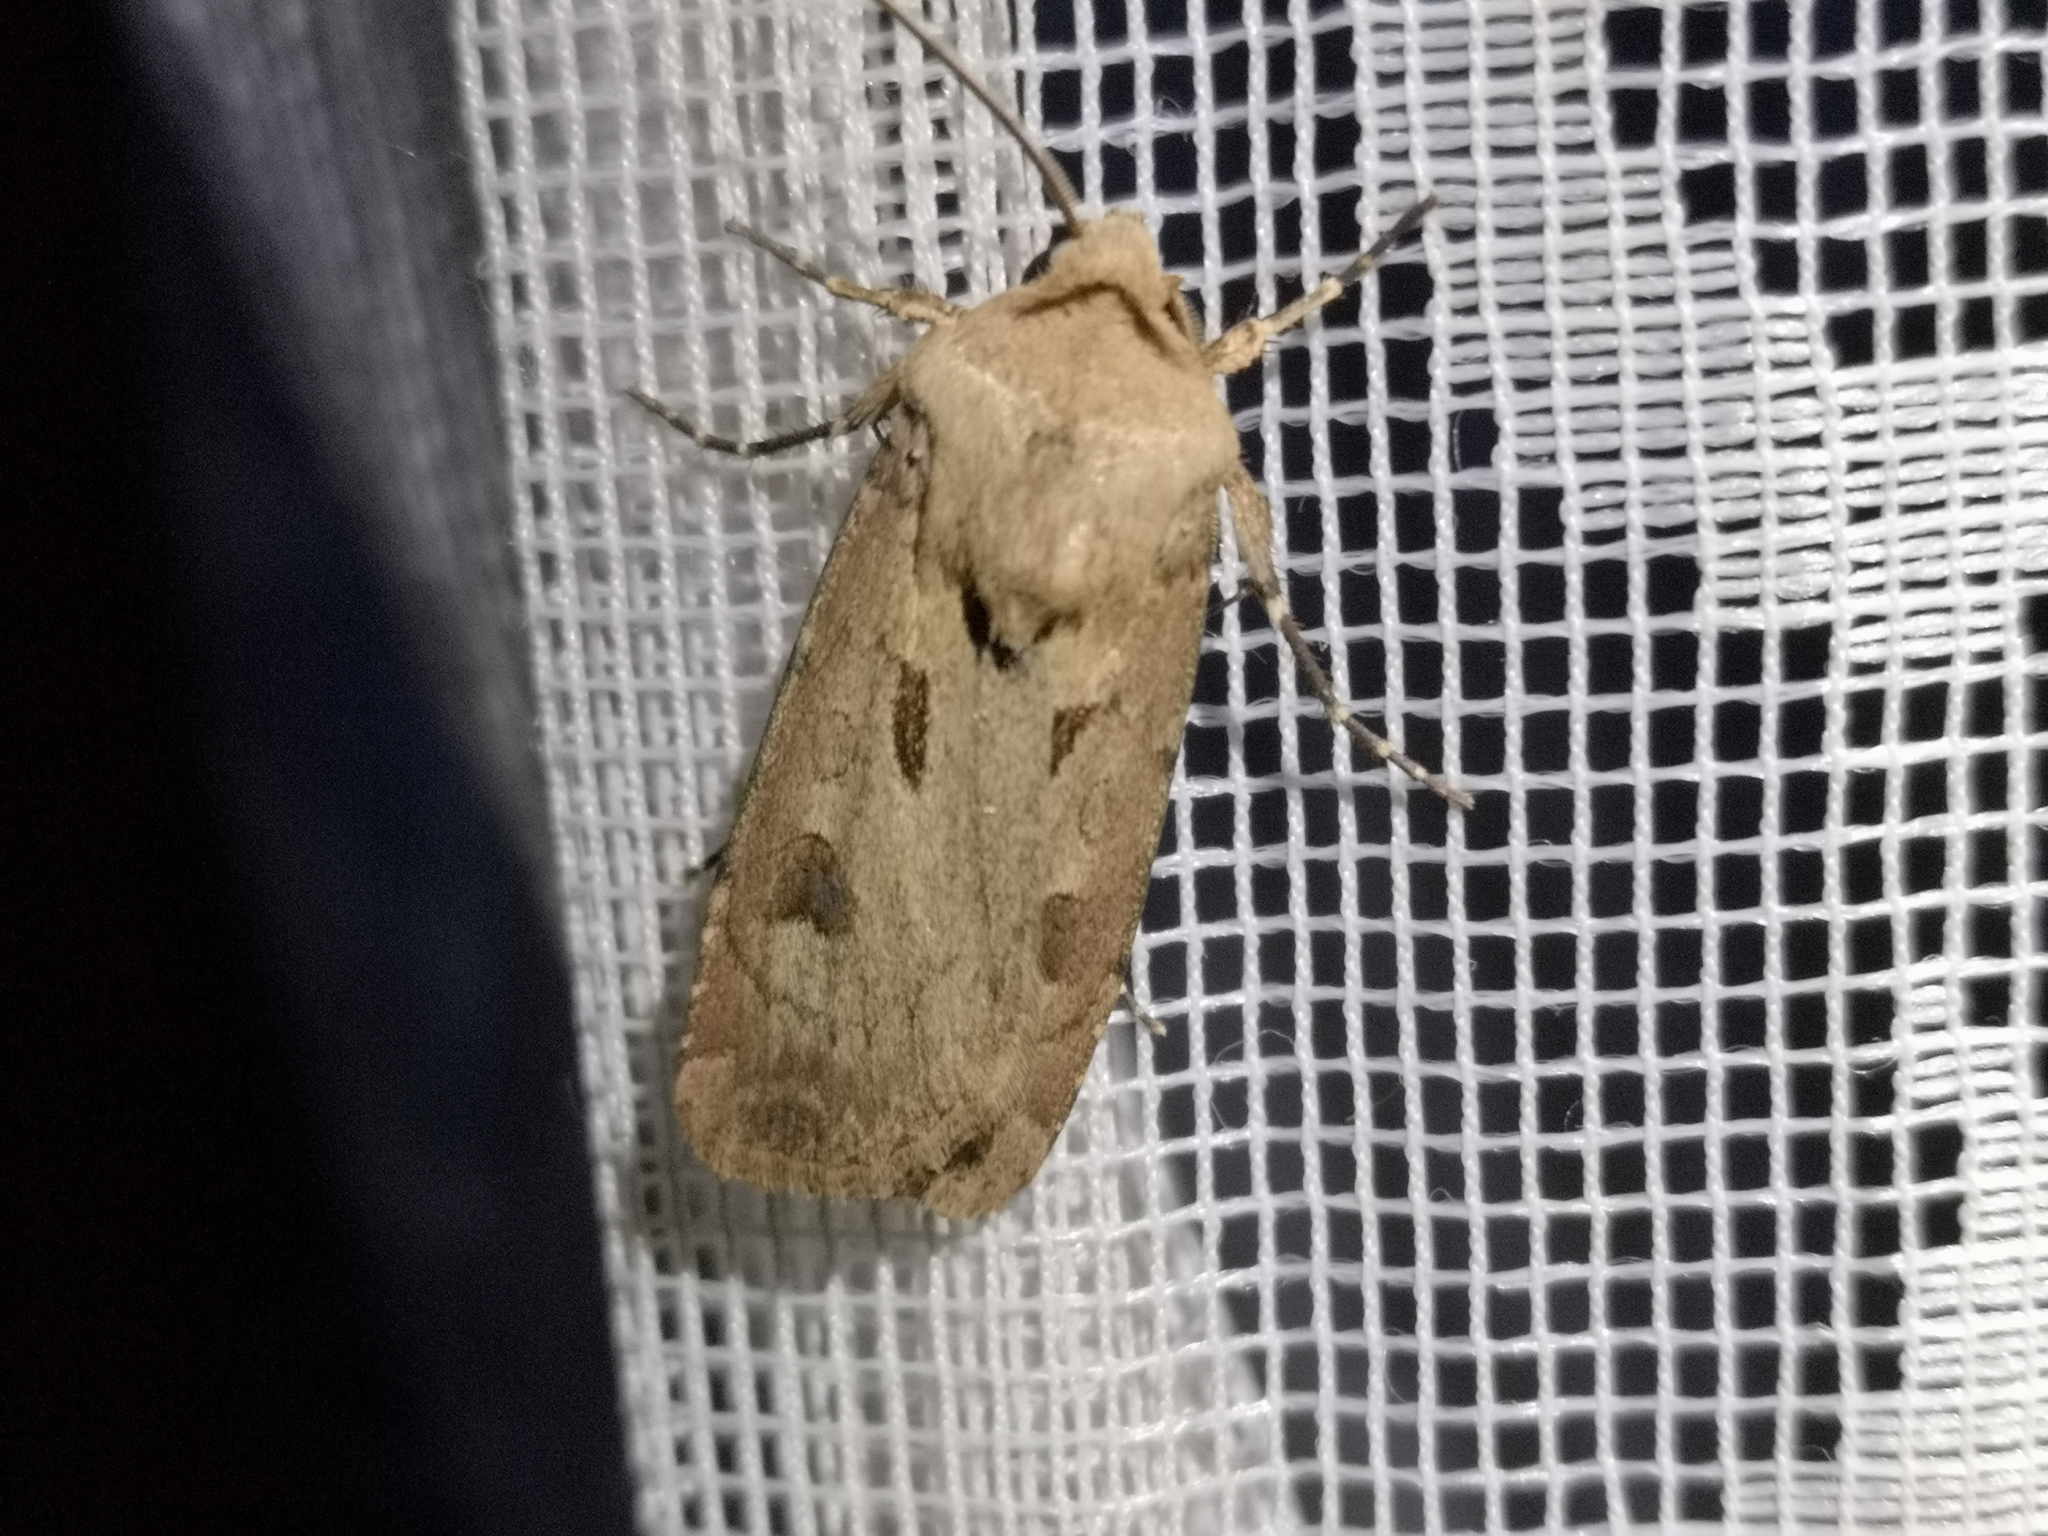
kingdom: Animalia
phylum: Arthropoda
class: Insecta
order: Lepidoptera
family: Noctuidae
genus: Agrotis
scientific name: Agrotis exclamationis
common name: Heart and dart
